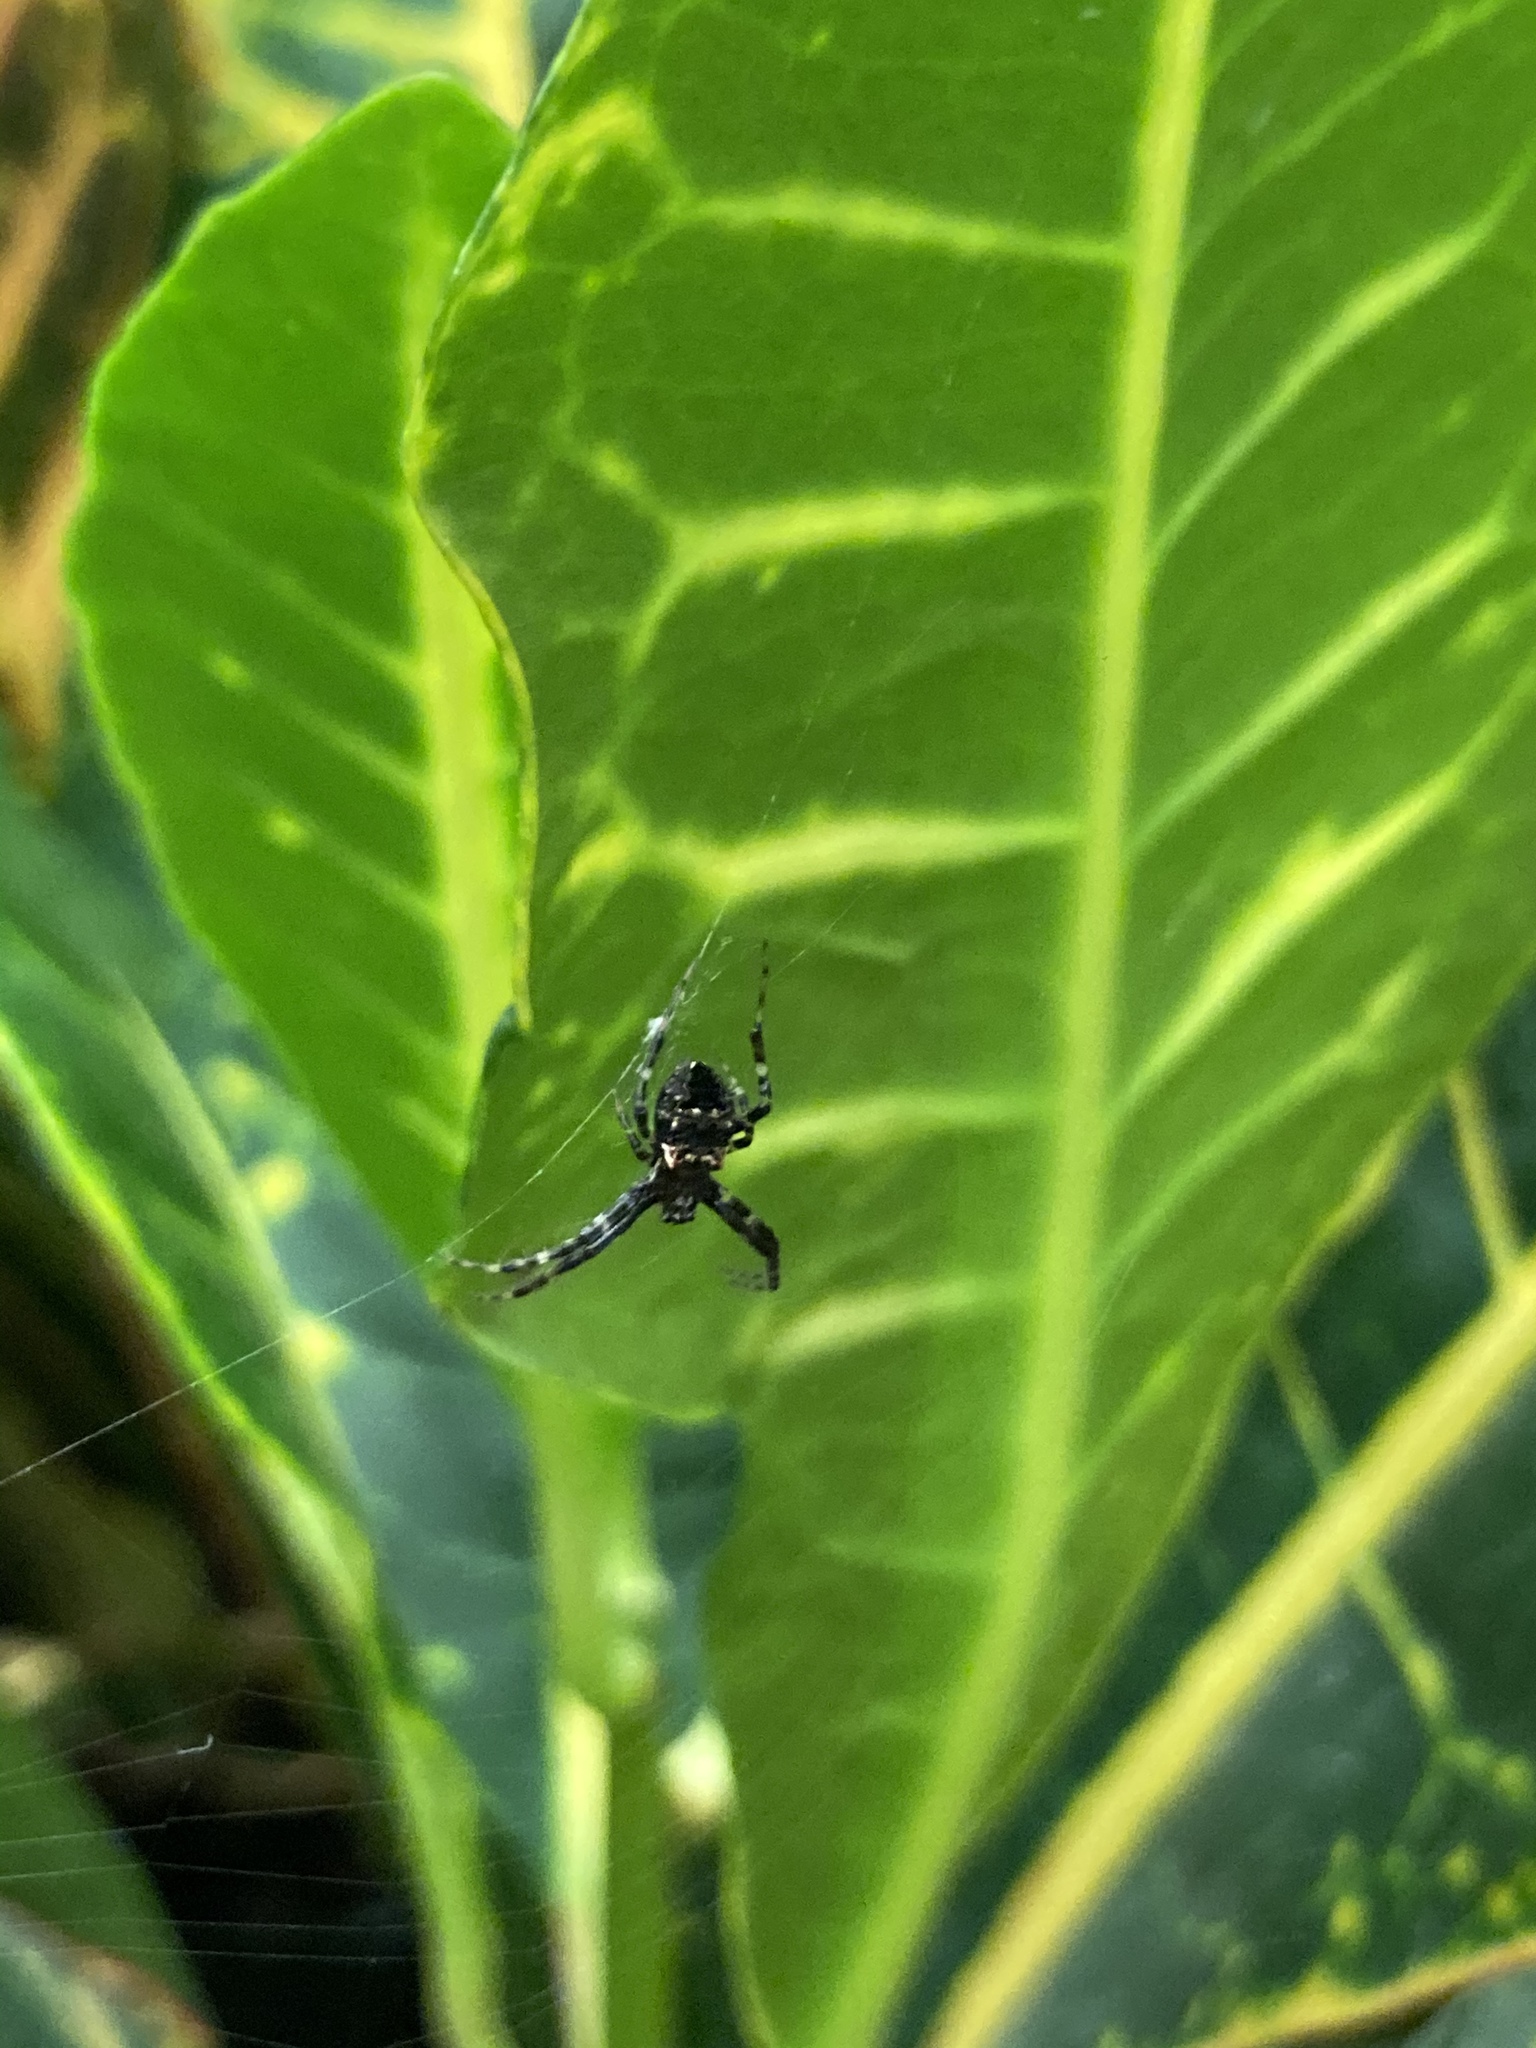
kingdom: Animalia
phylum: Arthropoda
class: Arachnida
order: Araneae
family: Araneidae
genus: Gea
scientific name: Gea heptagon
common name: Orb weavers
